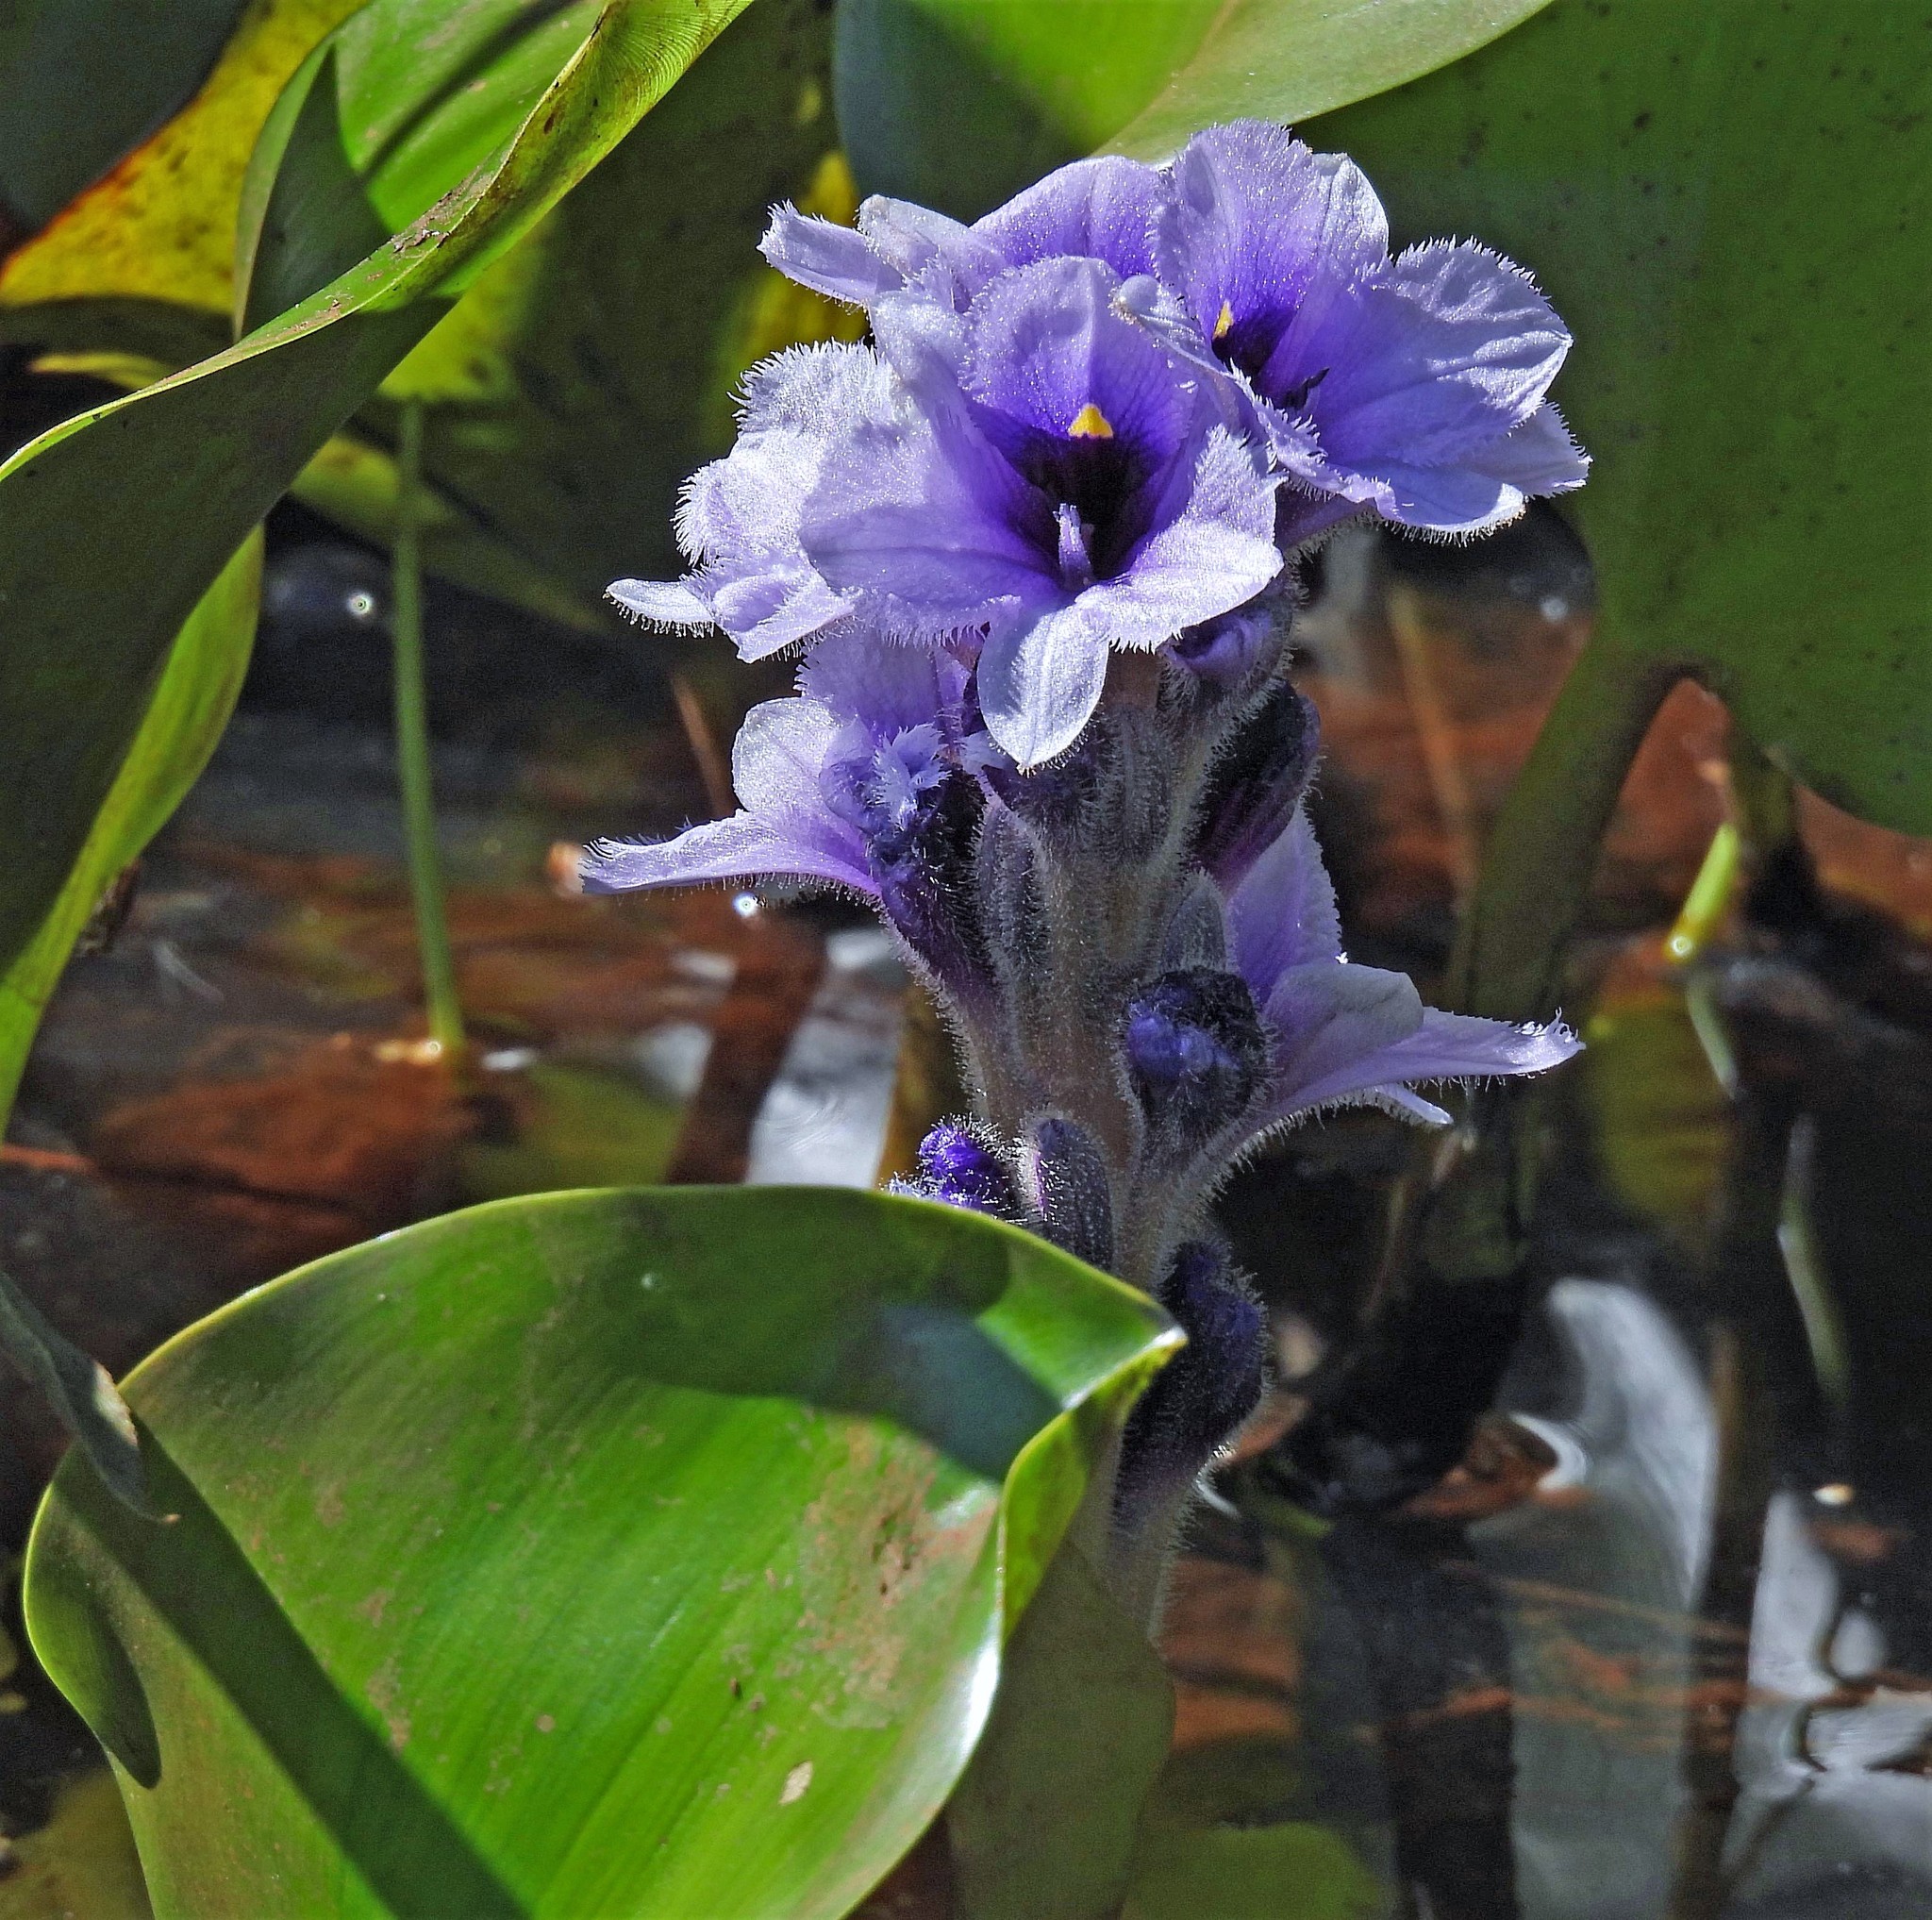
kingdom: Plantae
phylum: Tracheophyta
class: Liliopsida
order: Commelinales
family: Pontederiaceae
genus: Pontederia
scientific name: Pontederia azurea
